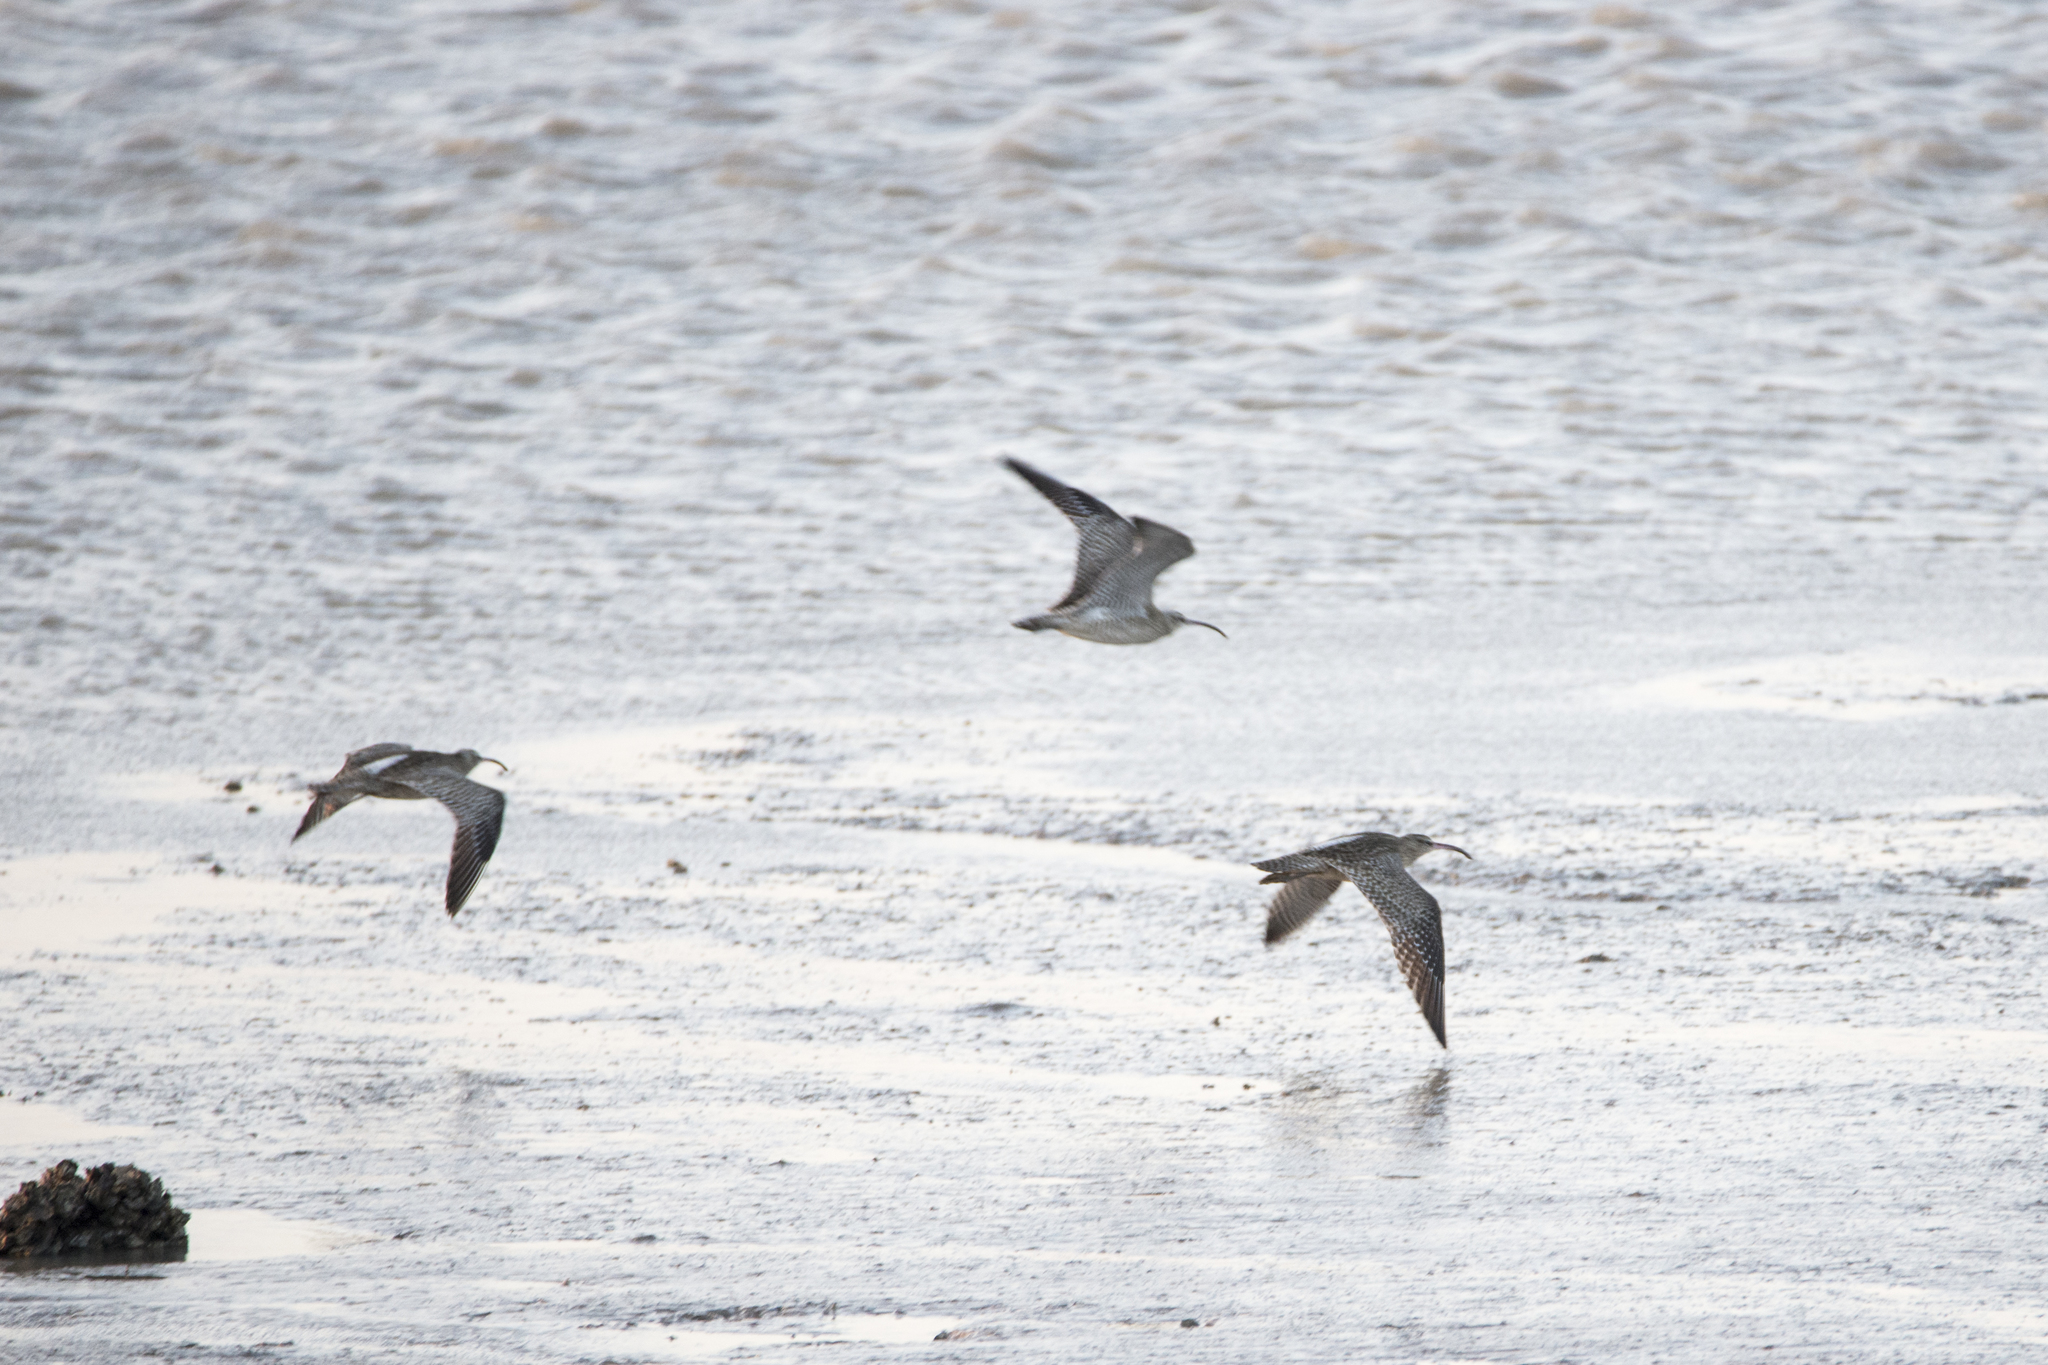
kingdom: Animalia
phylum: Chordata
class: Aves
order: Charadriiformes
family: Scolopacidae
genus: Numenius
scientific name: Numenius phaeopus
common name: Whimbrel
